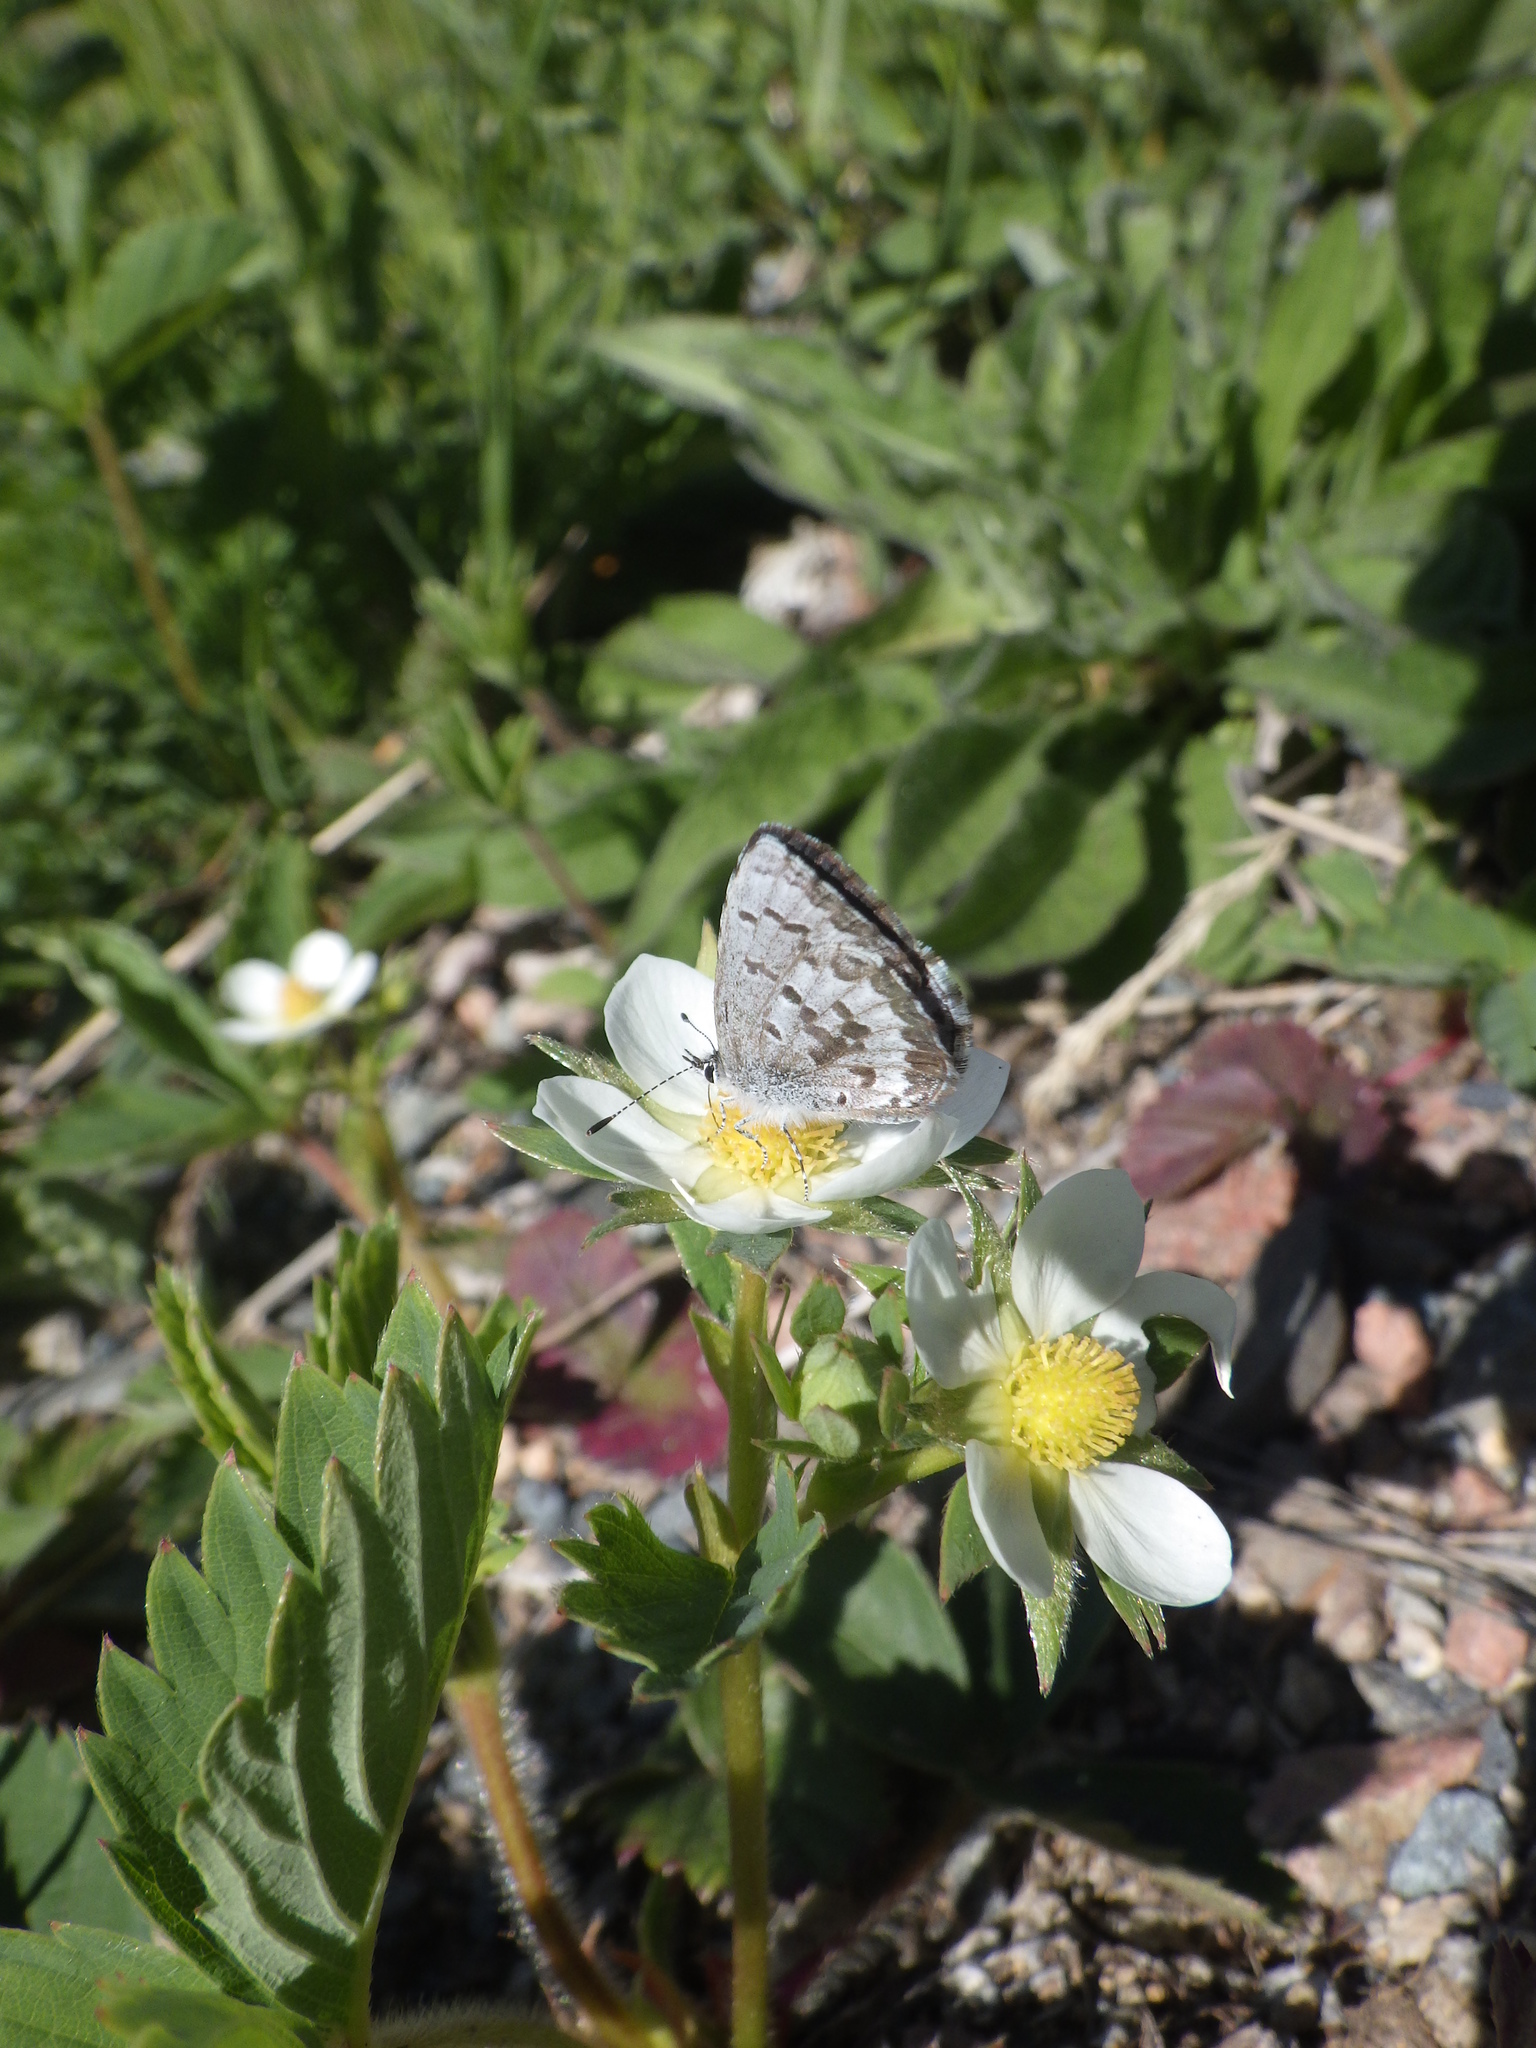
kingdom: Plantae
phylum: Tracheophyta
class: Magnoliopsida
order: Rosales
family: Rosaceae
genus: Fragaria
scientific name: Fragaria virginiana
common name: Thickleaved wild strawberry
